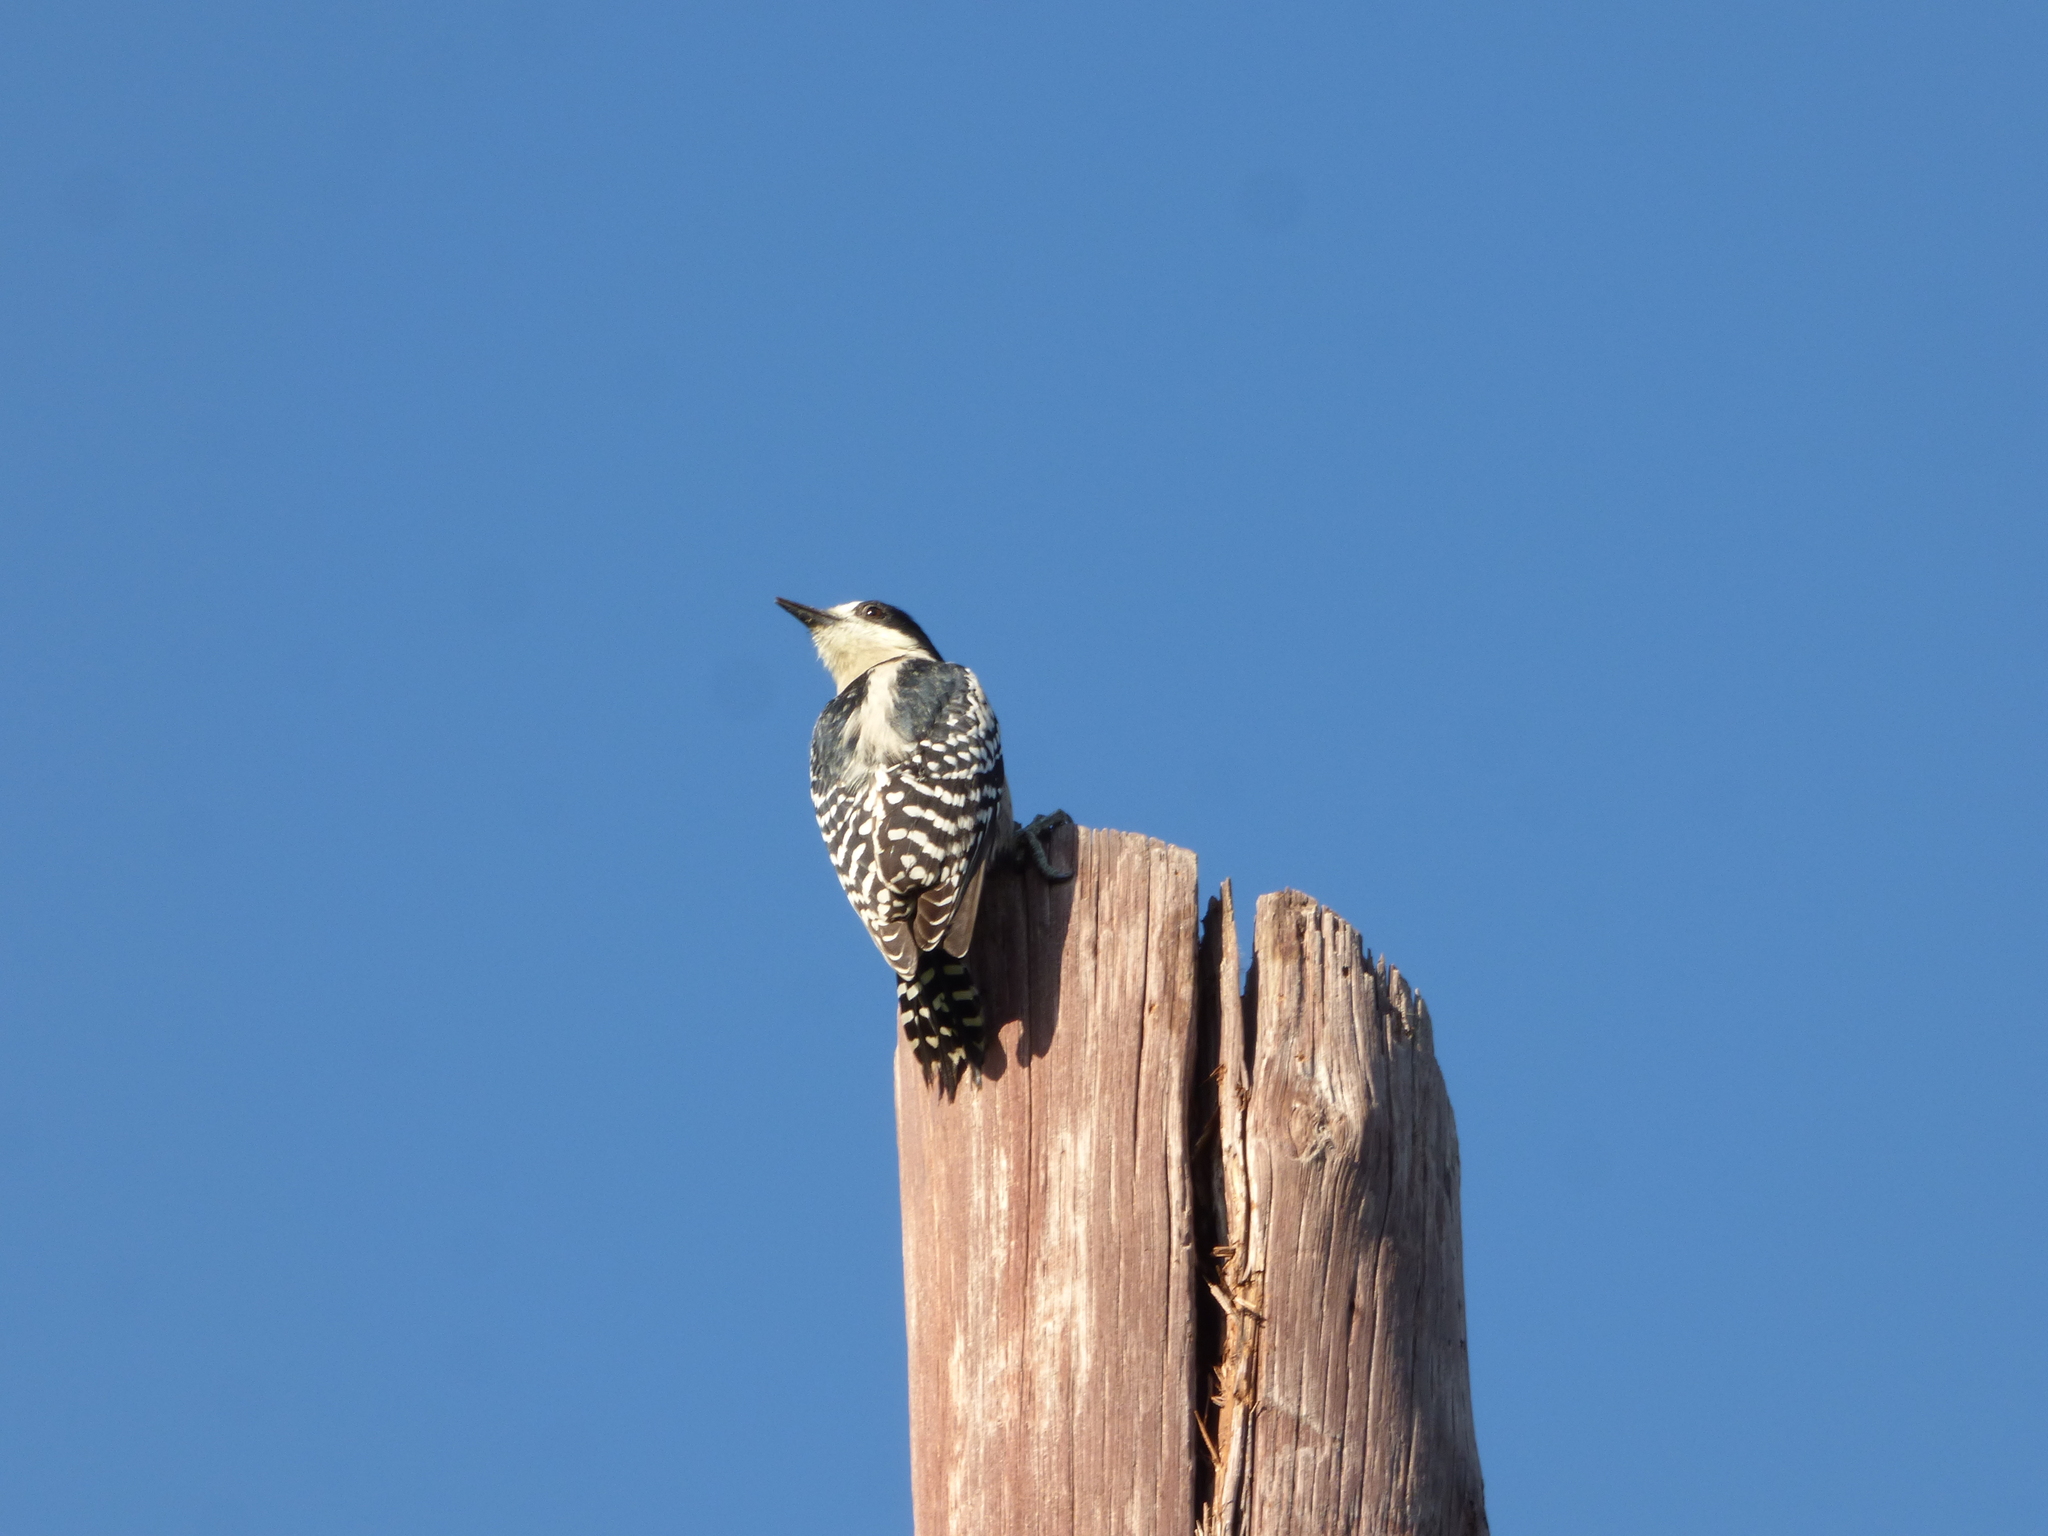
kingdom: Animalia
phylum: Chordata
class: Aves
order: Piciformes
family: Picidae
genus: Melanerpes
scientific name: Melanerpes cactorum
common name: White-fronted woodpecker
